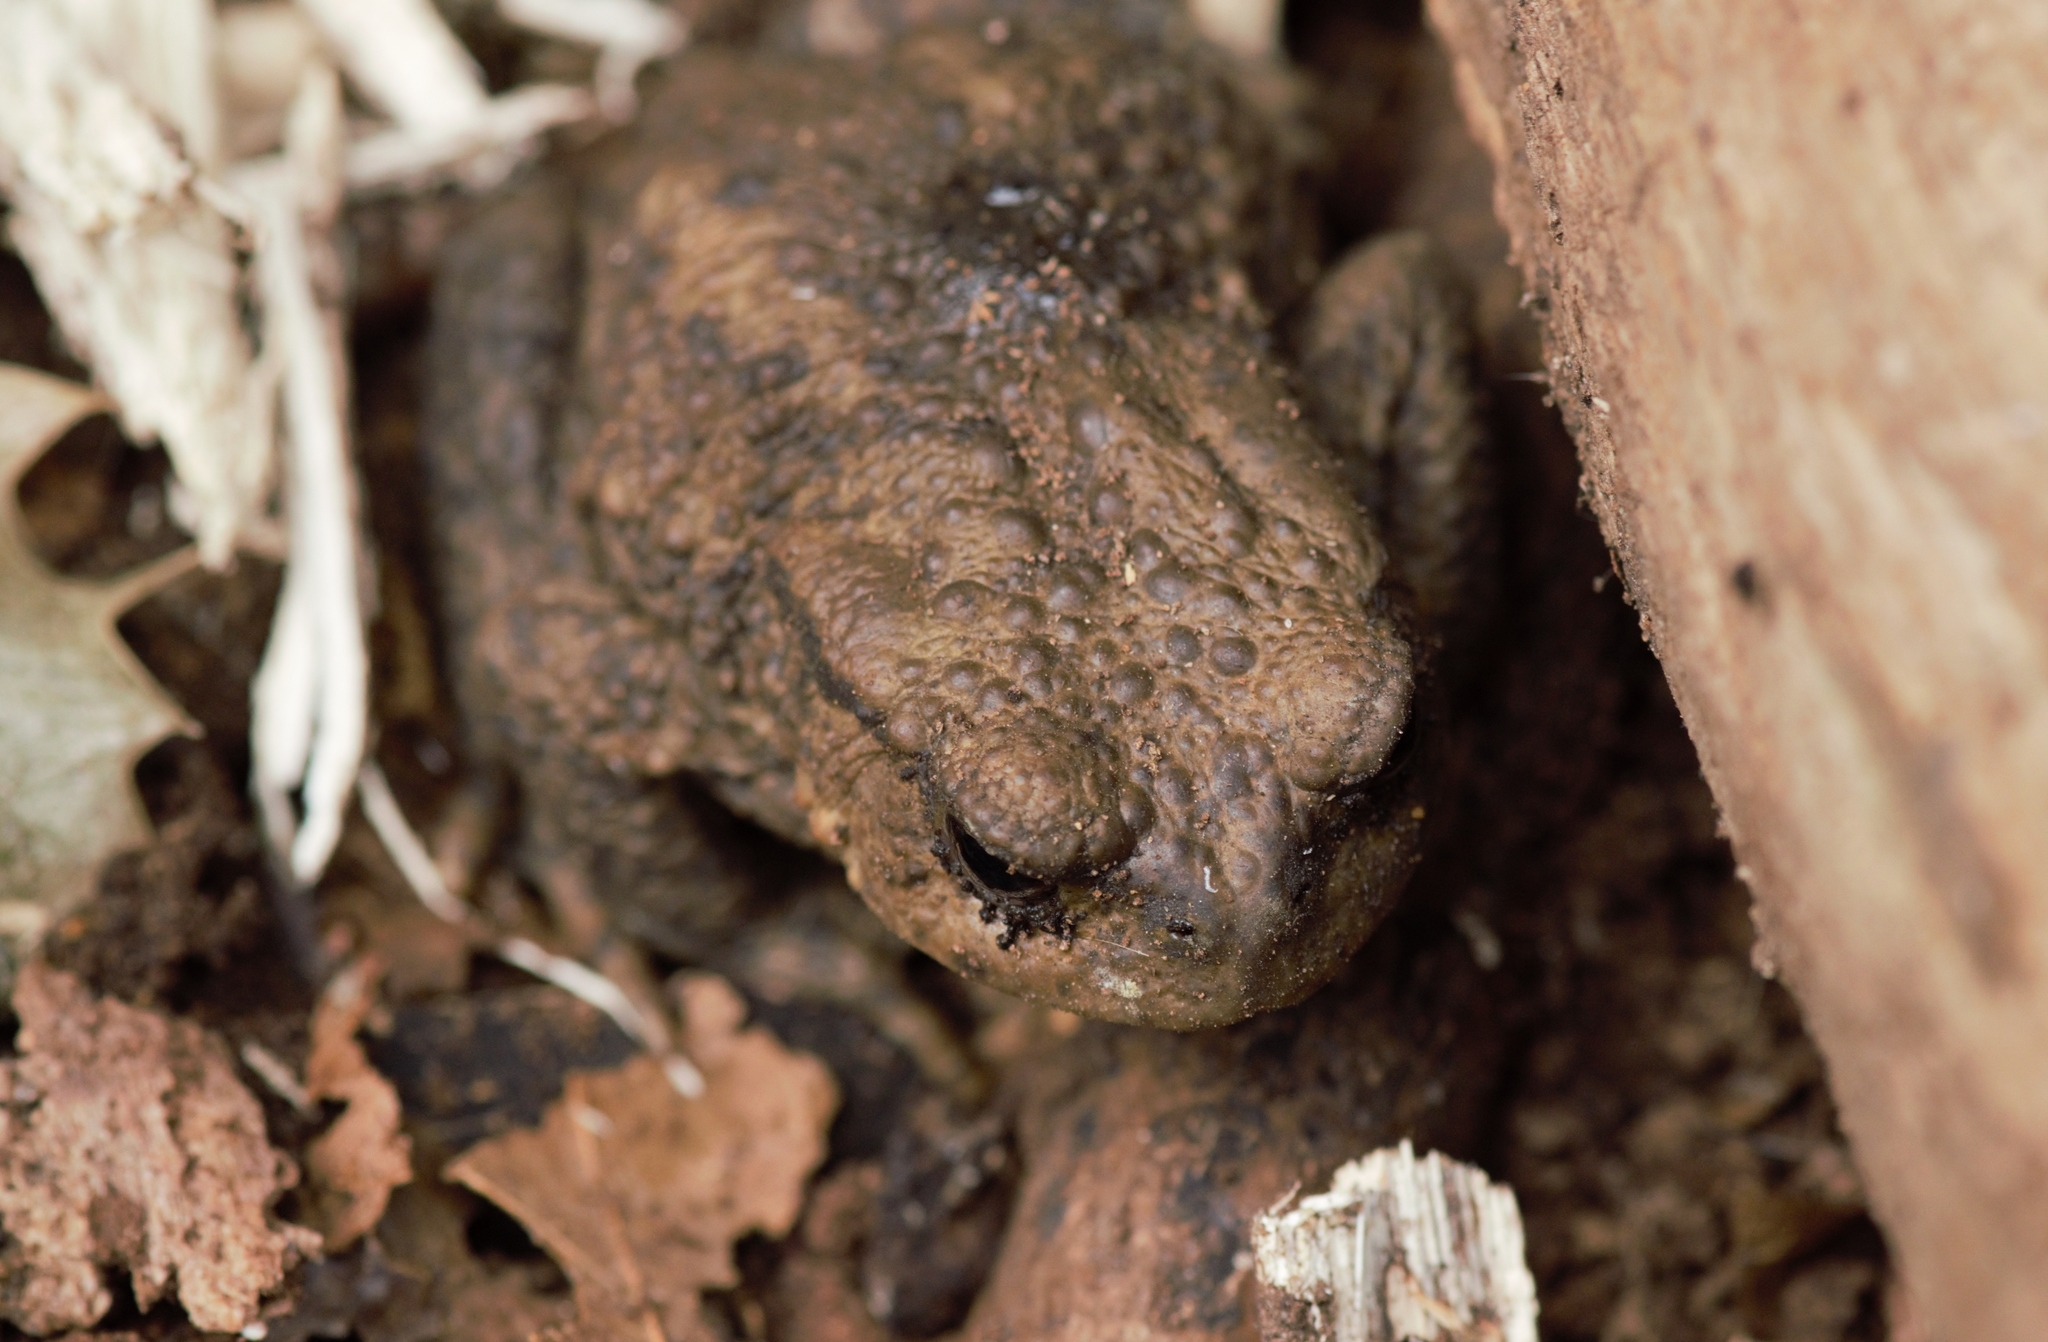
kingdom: Animalia
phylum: Chordata
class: Amphibia
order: Anura
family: Bufonidae
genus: Bufo
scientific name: Bufo bufo
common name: Common toad
